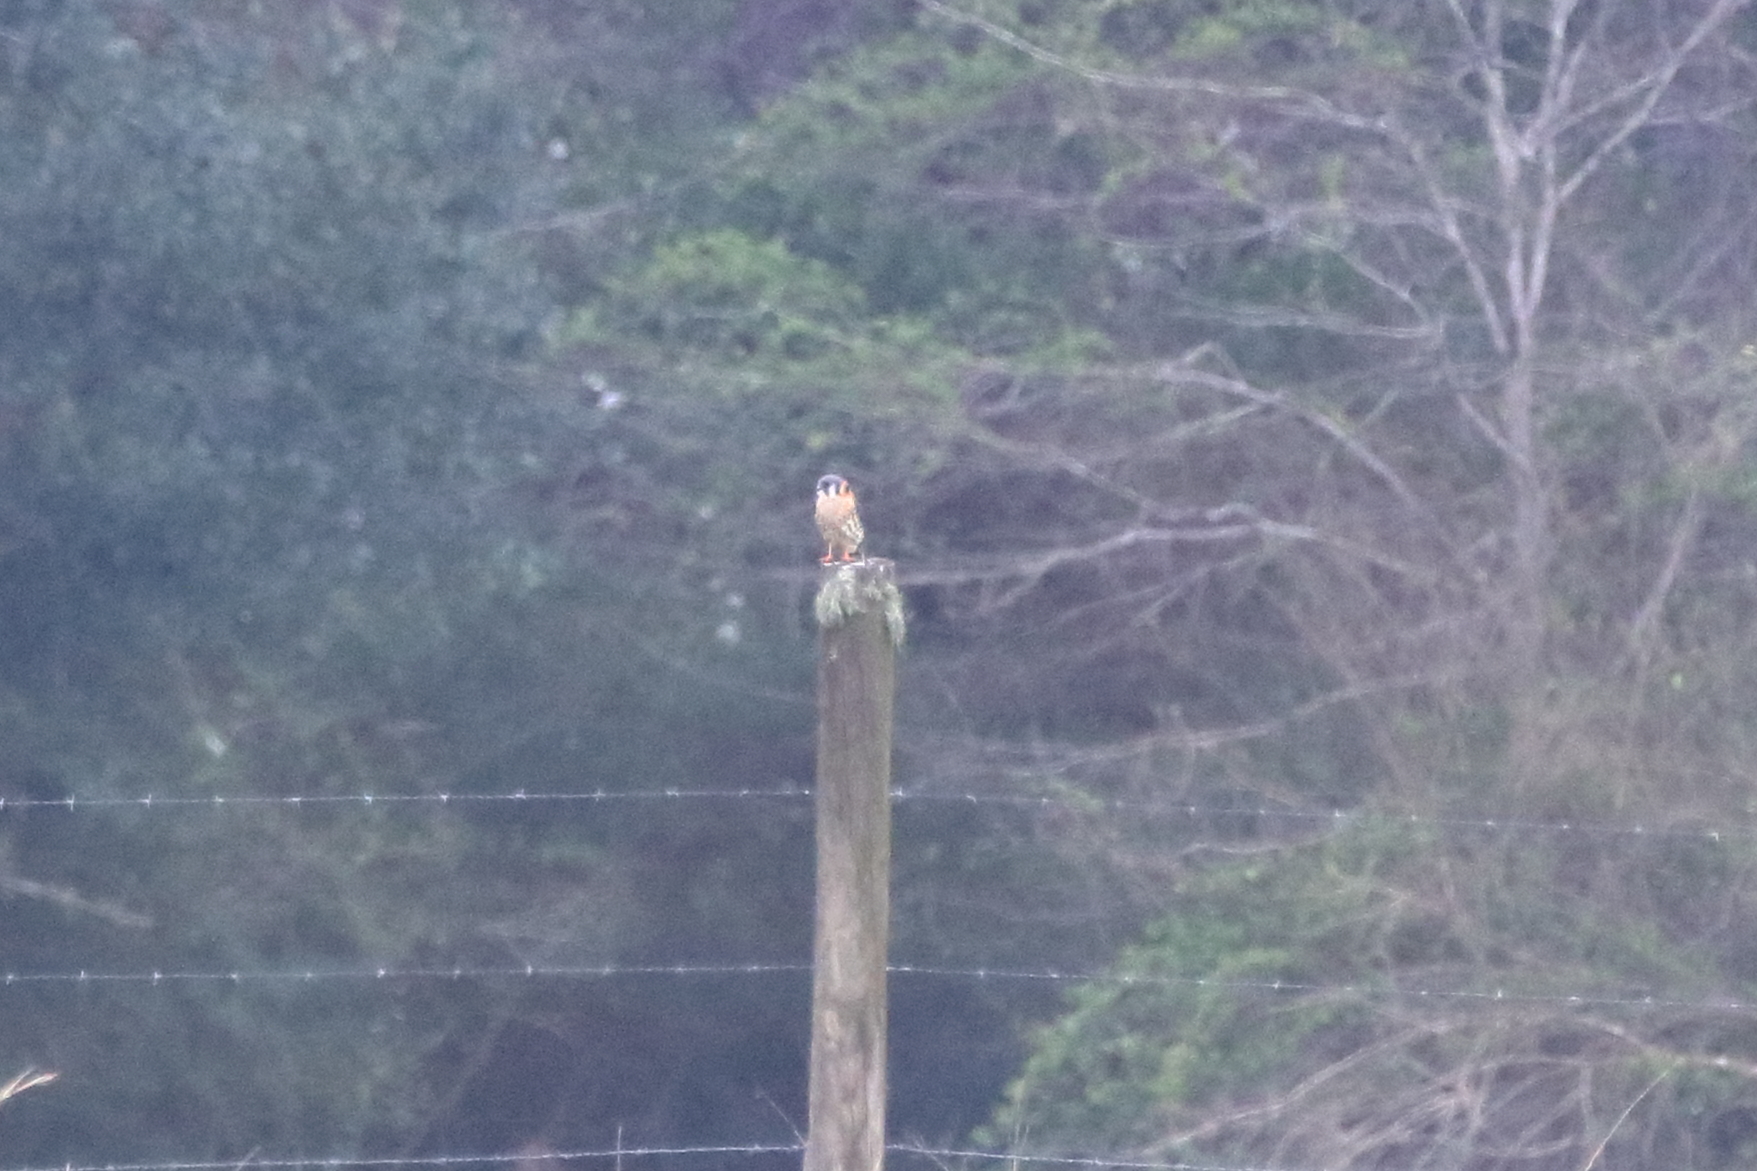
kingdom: Animalia
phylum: Chordata
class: Aves
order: Falconiformes
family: Falconidae
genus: Falco
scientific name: Falco sparverius
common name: American kestrel
